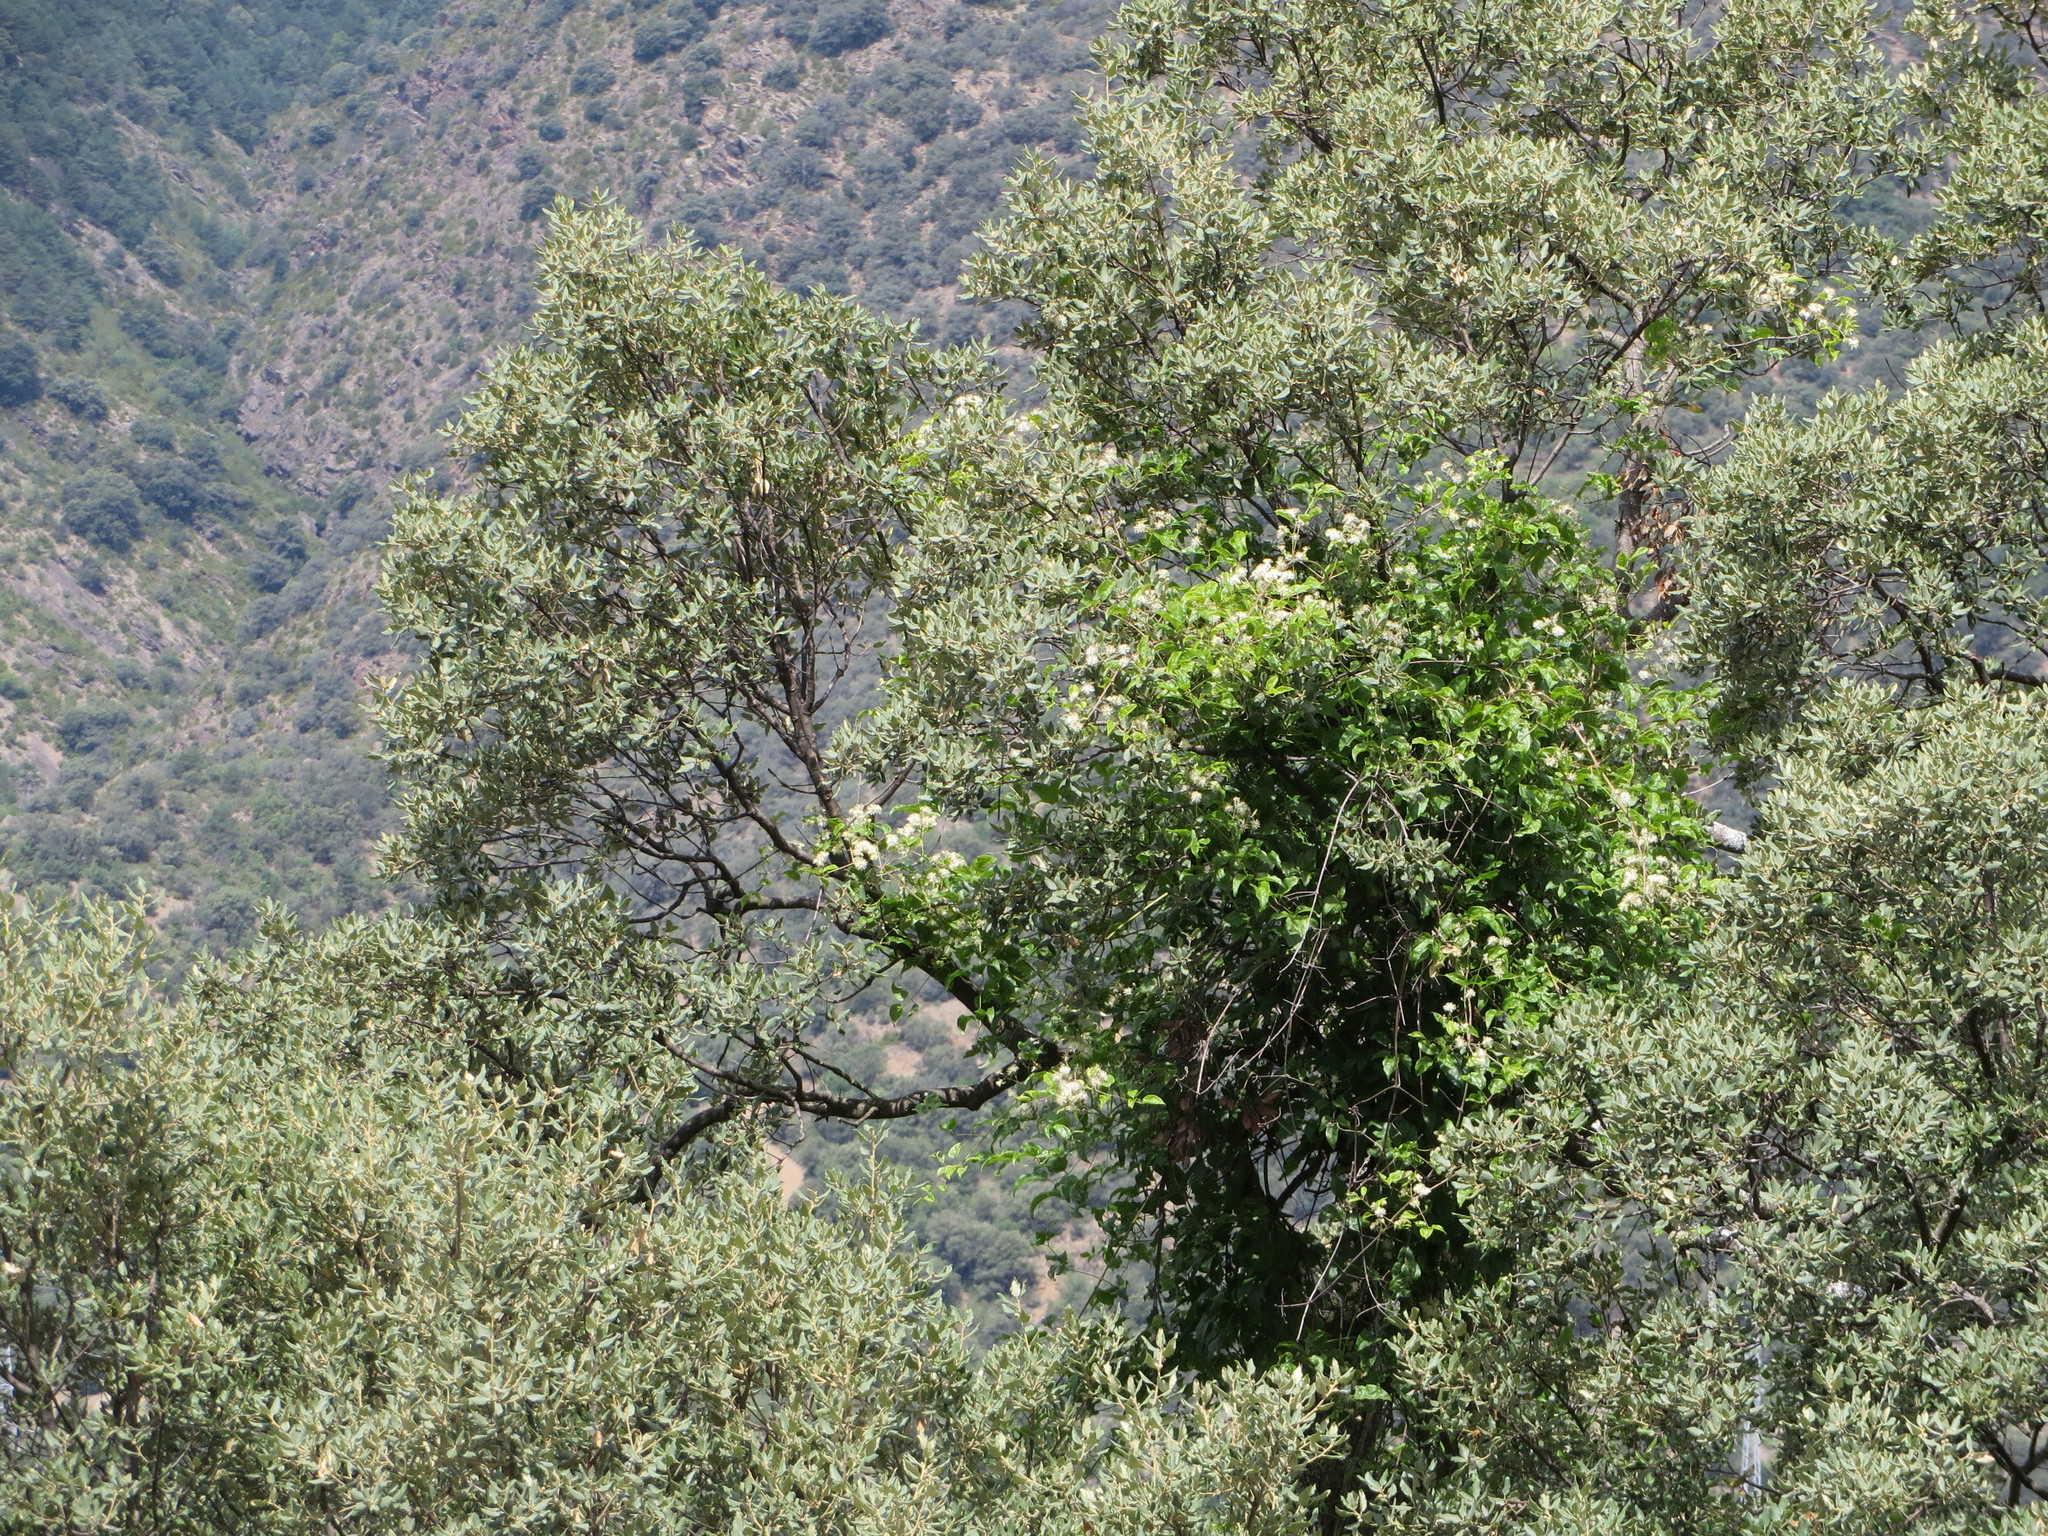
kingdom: Plantae
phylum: Tracheophyta
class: Magnoliopsida
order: Ranunculales
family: Ranunculaceae
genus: Clematis
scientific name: Clematis vitalba
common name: Evergreen clematis
